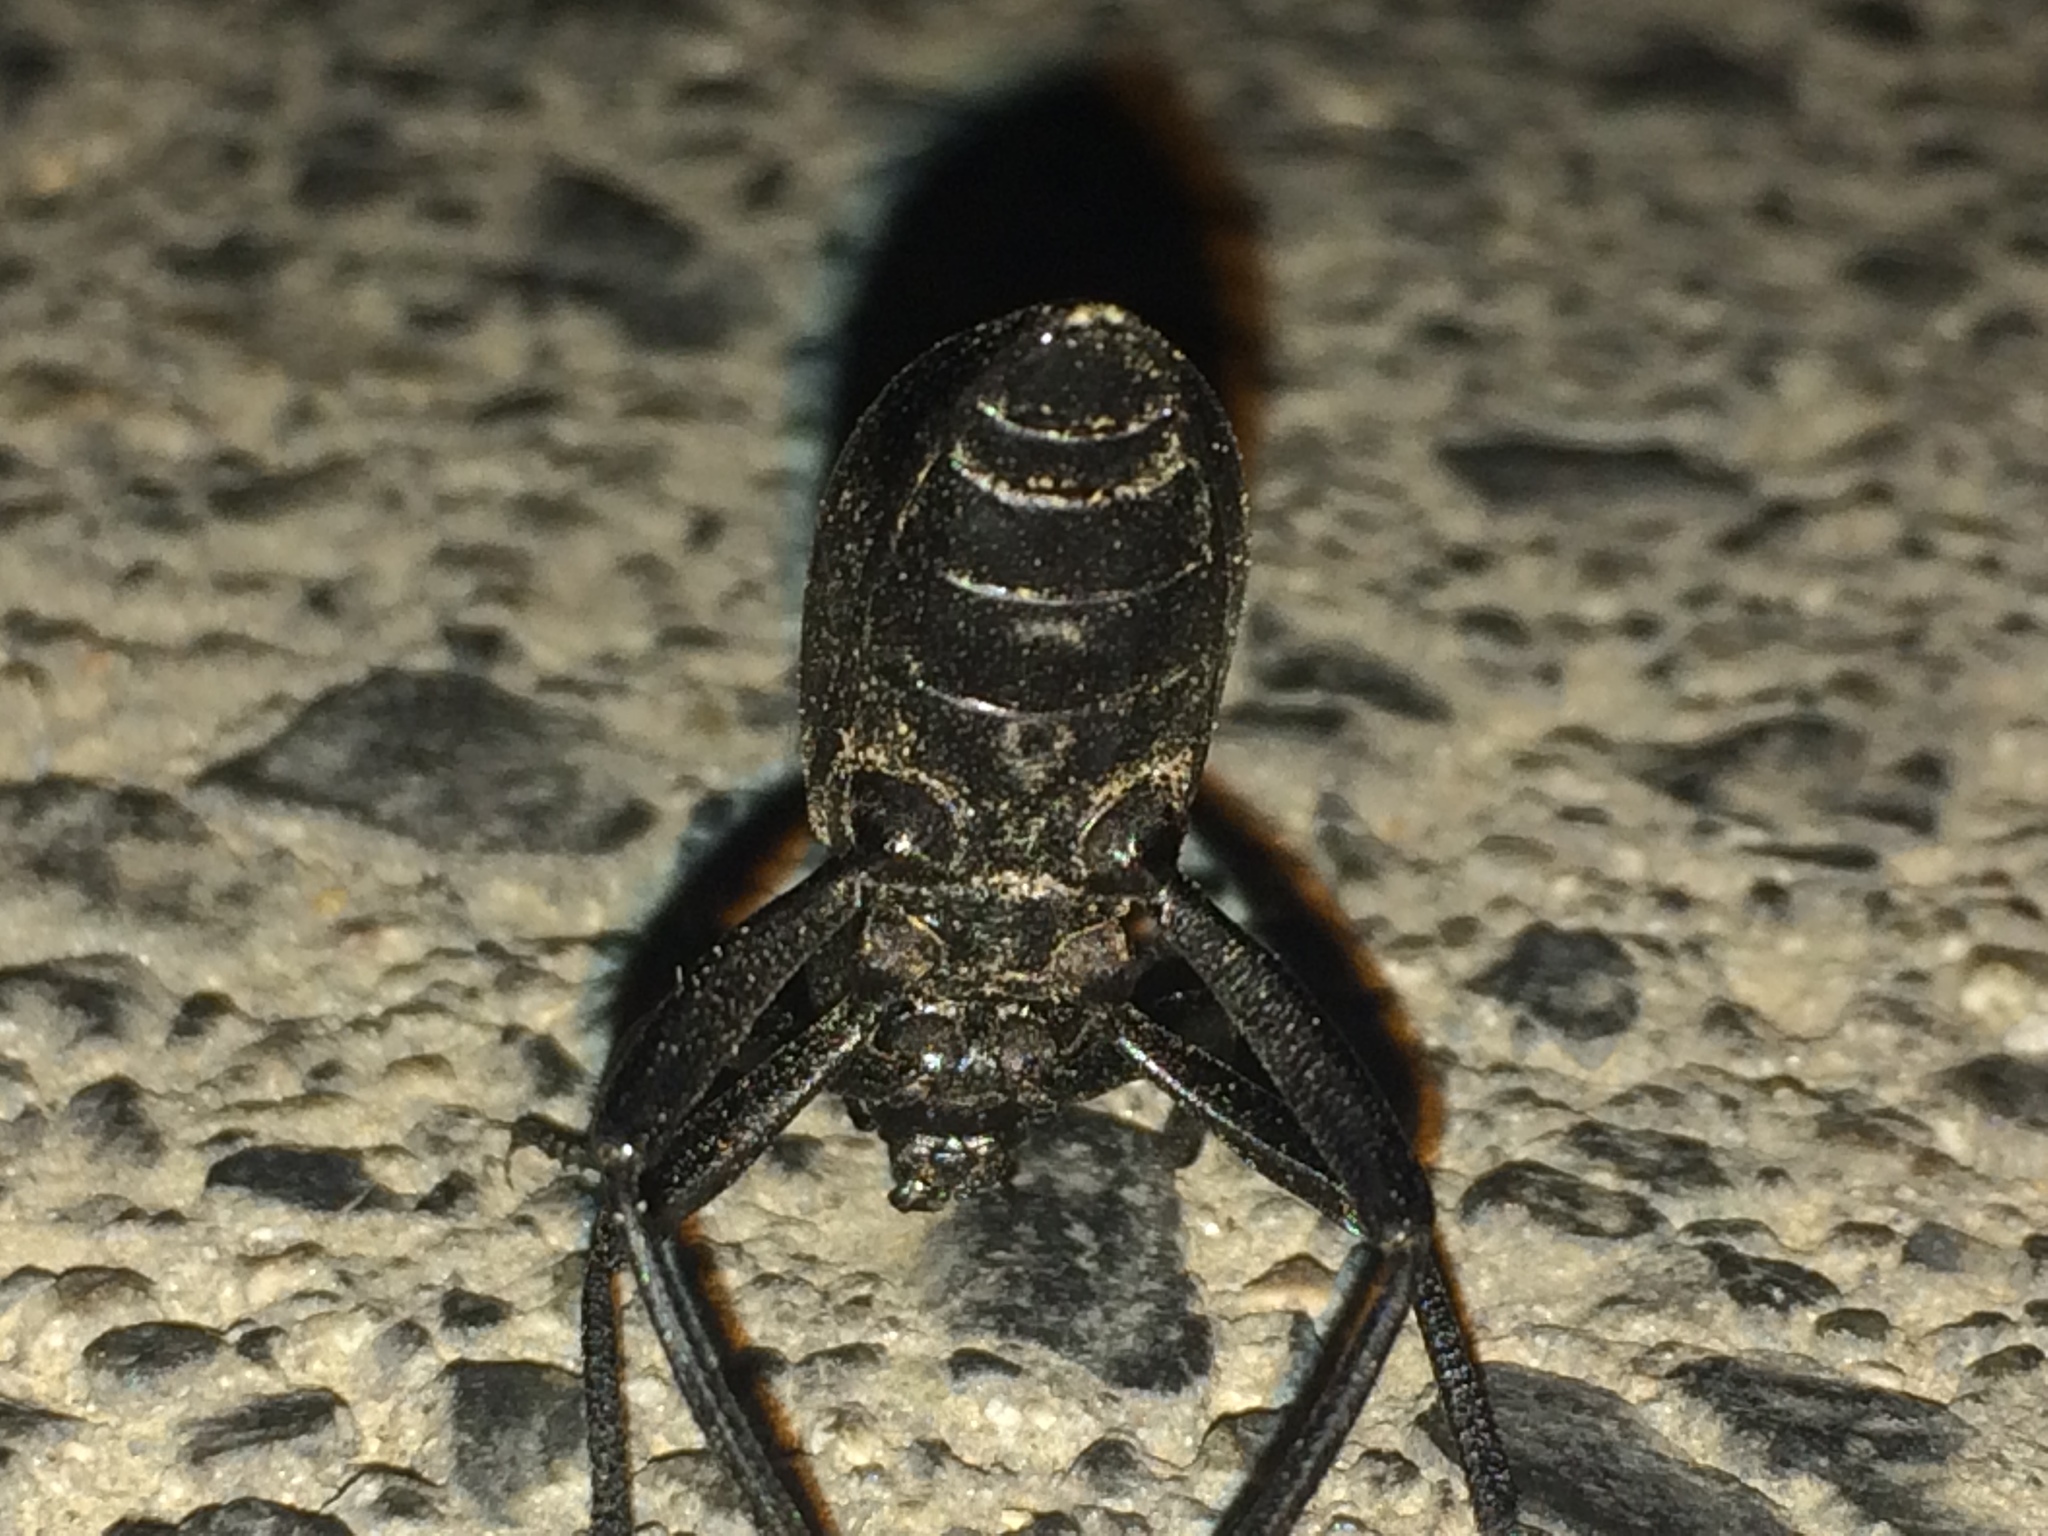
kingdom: Animalia
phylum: Arthropoda
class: Insecta
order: Coleoptera
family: Tenebrionidae
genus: Eleodes
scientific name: Eleodes gracilis
